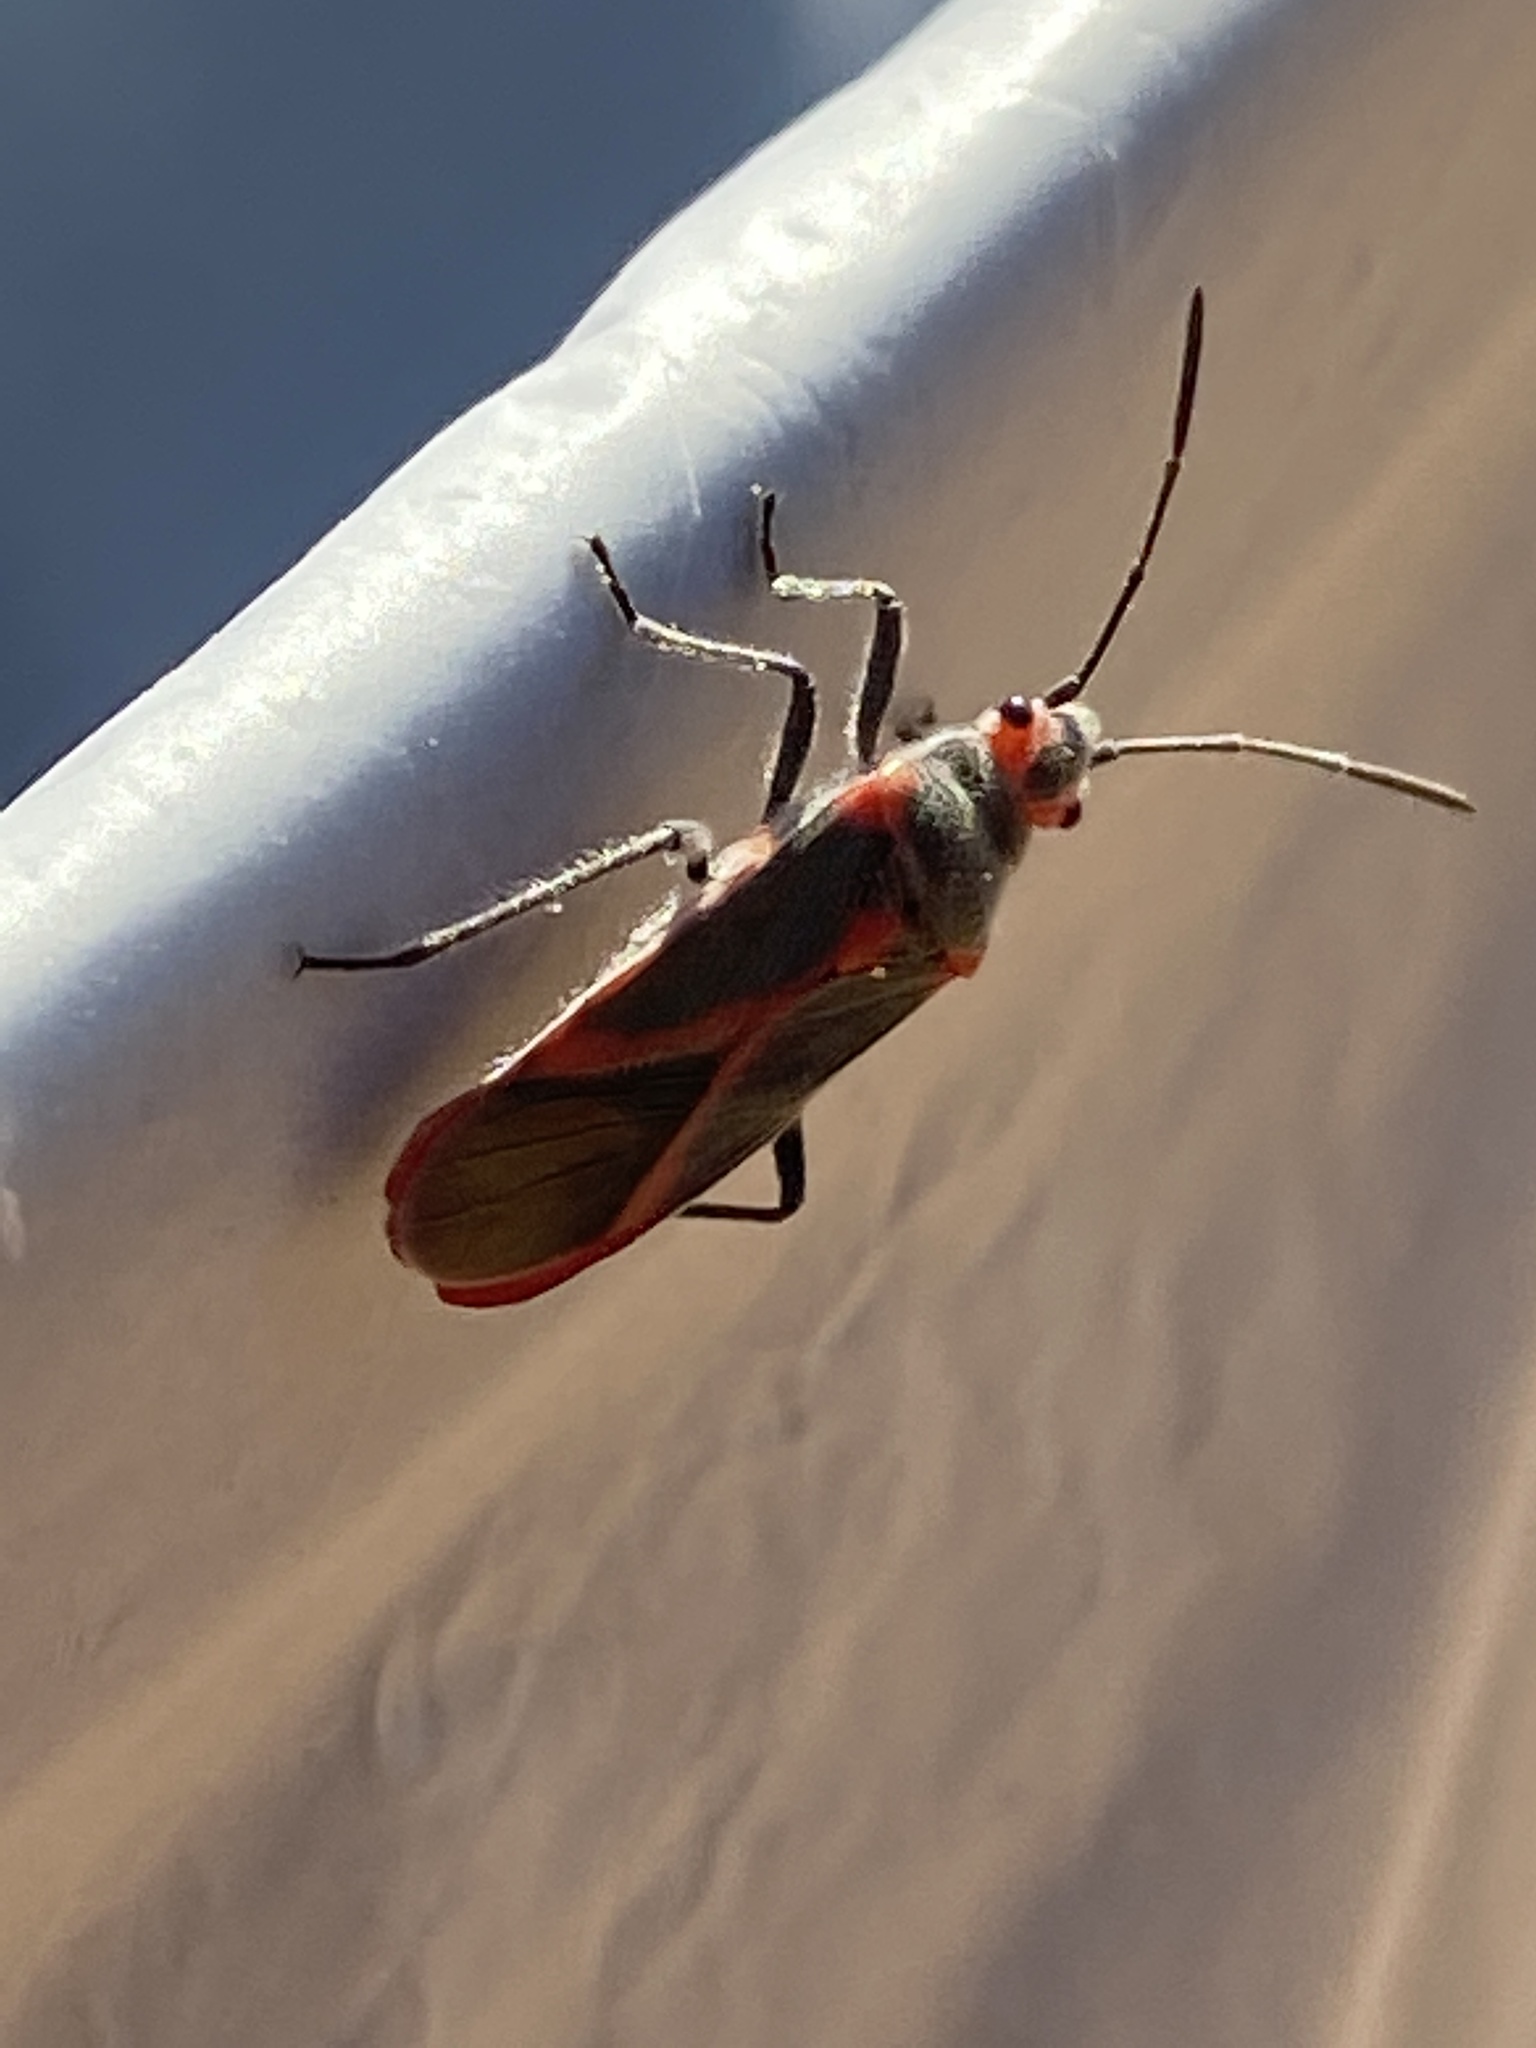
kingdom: Animalia
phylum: Arthropoda
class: Insecta
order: Hemiptera
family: Lygaeidae
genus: Caenocoris
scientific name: Caenocoris nerii
